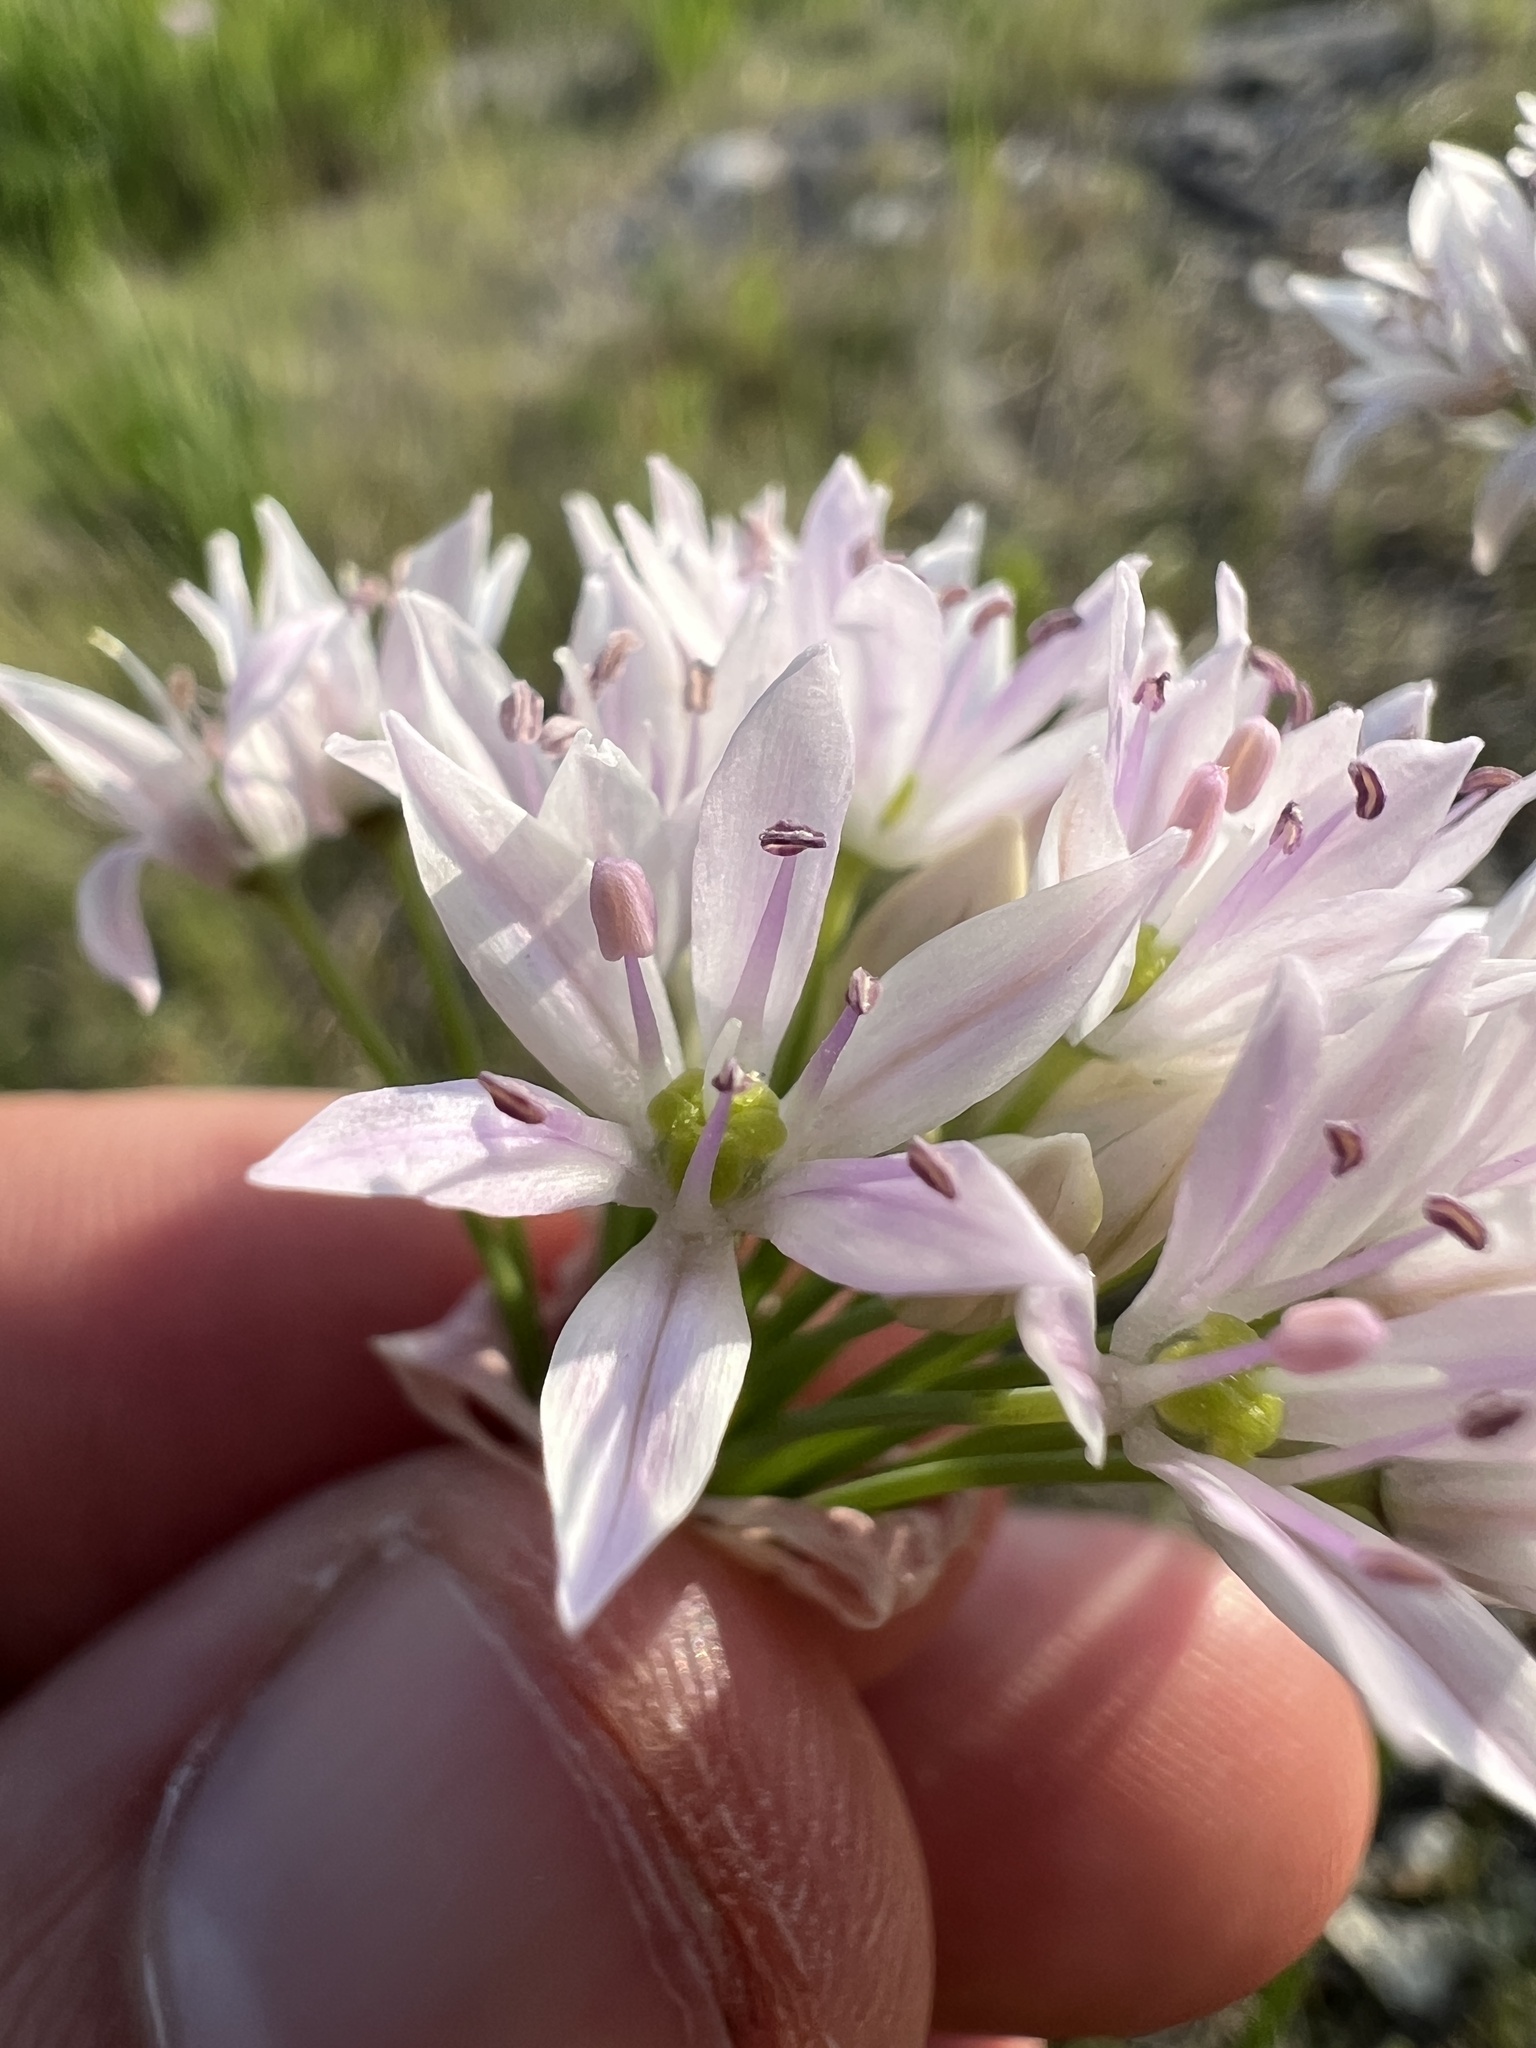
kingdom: Plantae
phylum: Tracheophyta
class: Liliopsida
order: Asparagales
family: Amaryllidaceae
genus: Allium
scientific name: Allium canadense
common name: Meadow garlic
